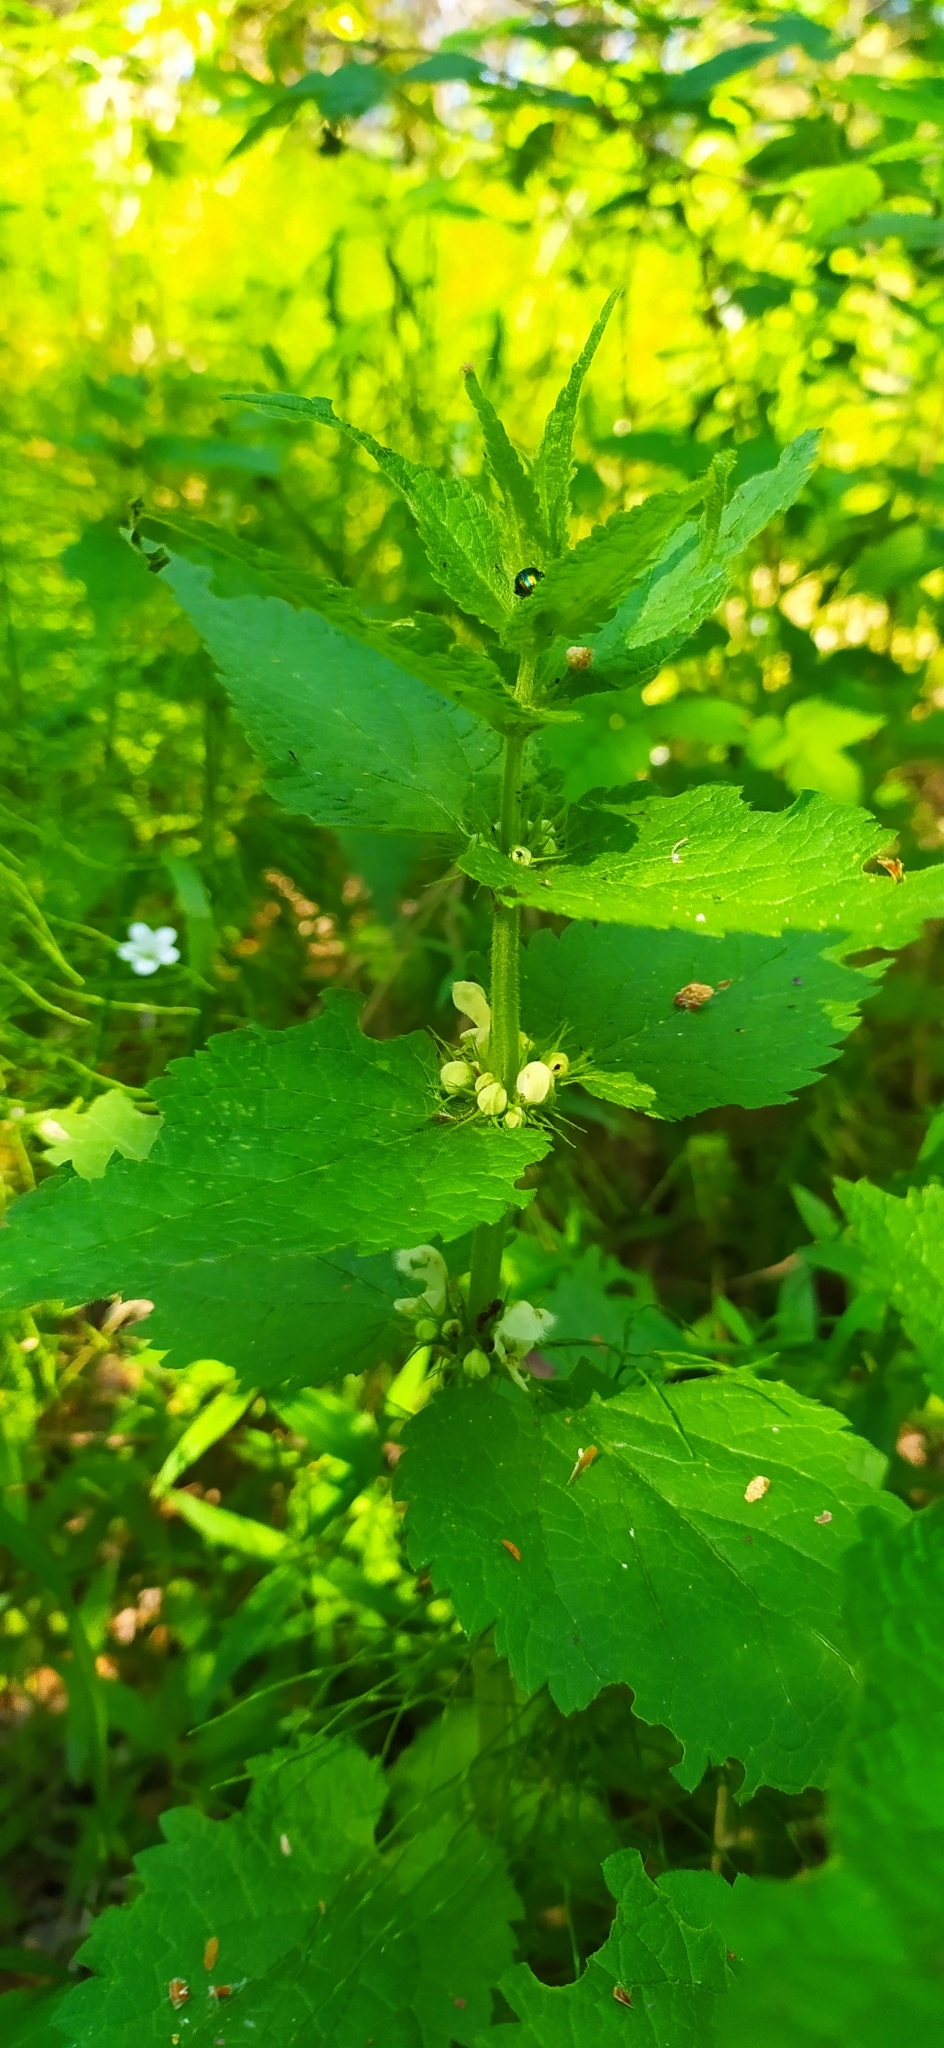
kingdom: Plantae
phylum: Tracheophyta
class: Magnoliopsida
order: Lamiales
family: Lamiaceae
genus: Lamium
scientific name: Lamium album
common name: White dead-nettle
